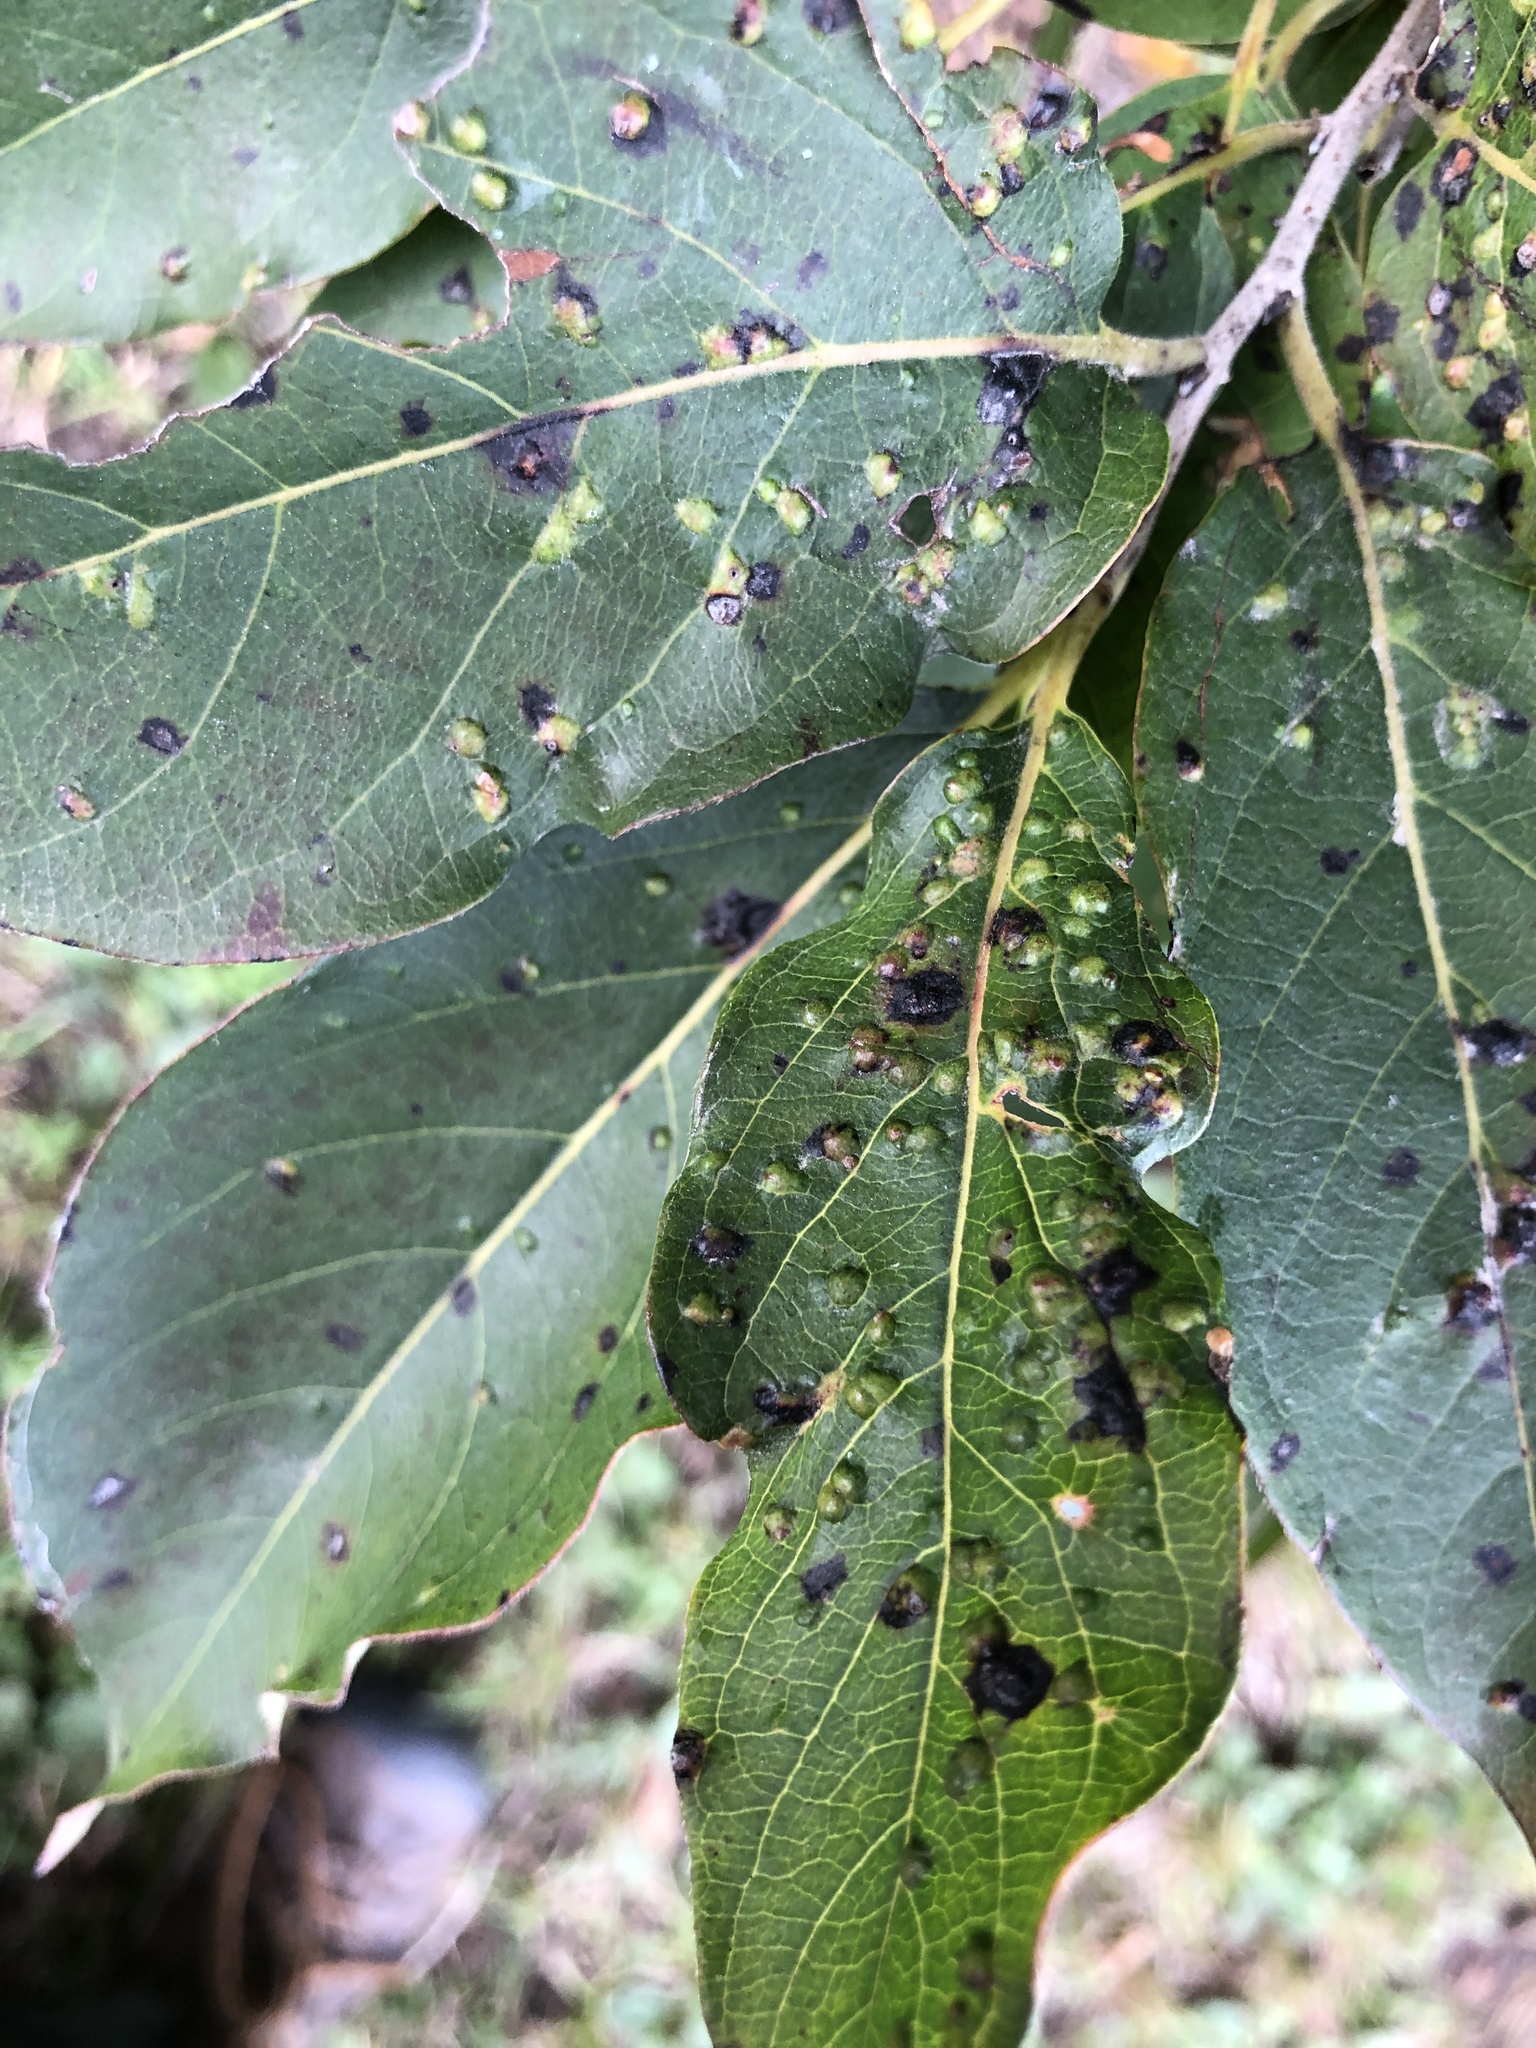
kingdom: Animalia
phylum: Arthropoda
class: Arachnida
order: Trombidiformes
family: Eriophyidae
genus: Aceria
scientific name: Aceria
